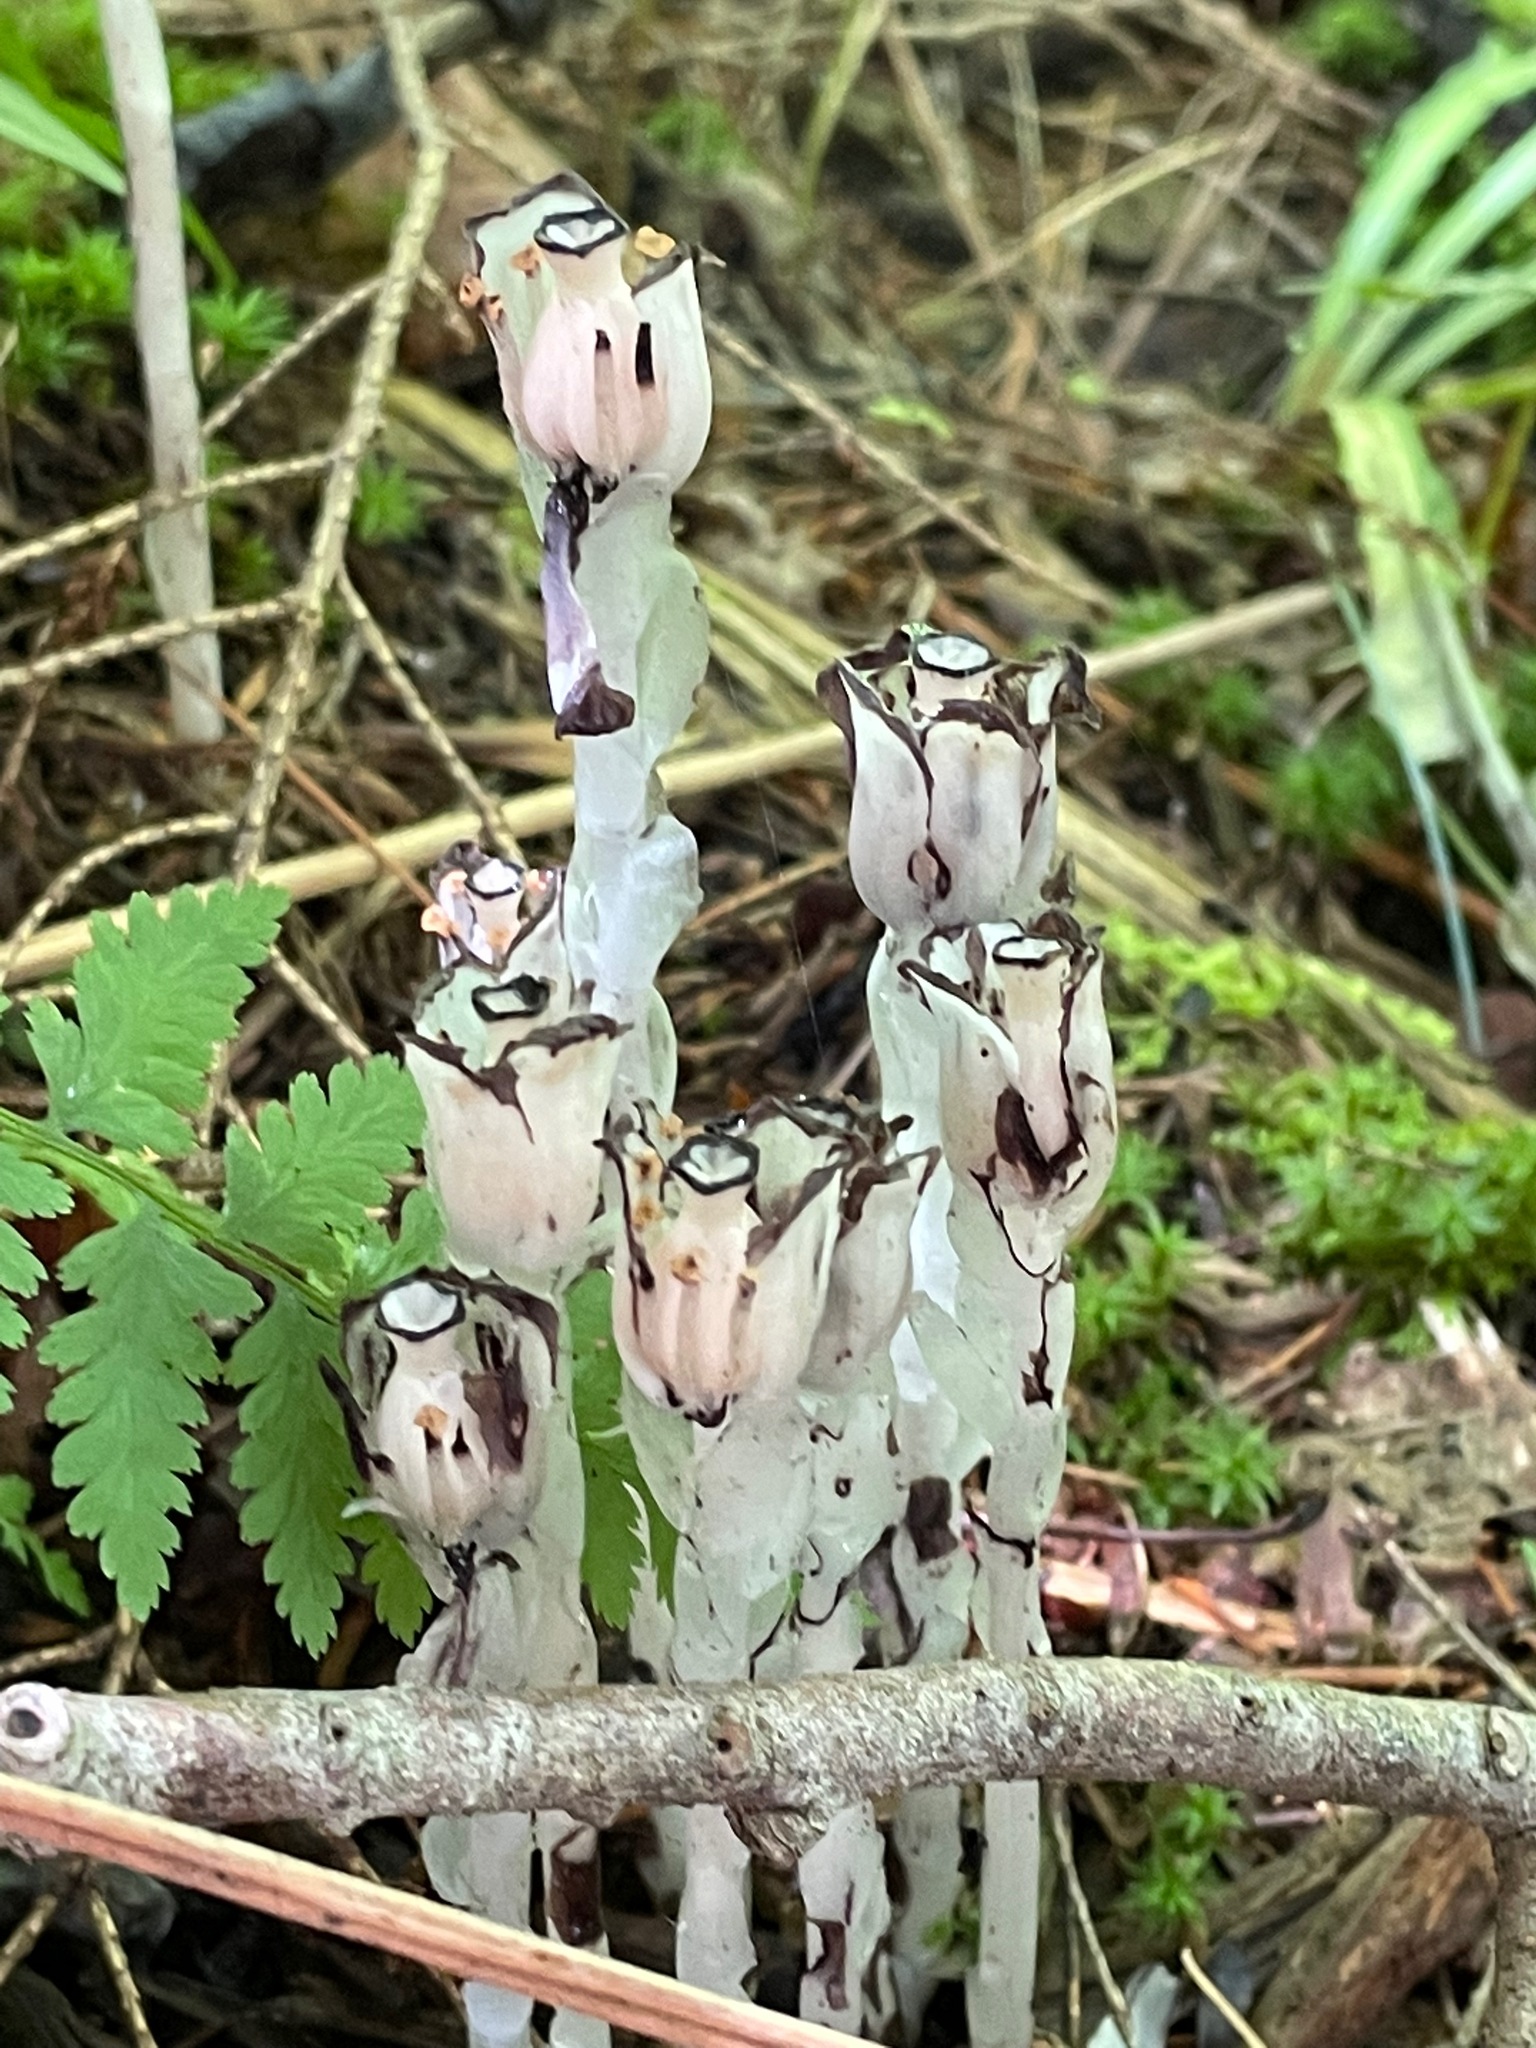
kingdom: Plantae
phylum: Tracheophyta
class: Magnoliopsida
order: Ericales
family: Ericaceae
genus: Monotropa
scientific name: Monotropa uniflora
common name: Convulsion root
